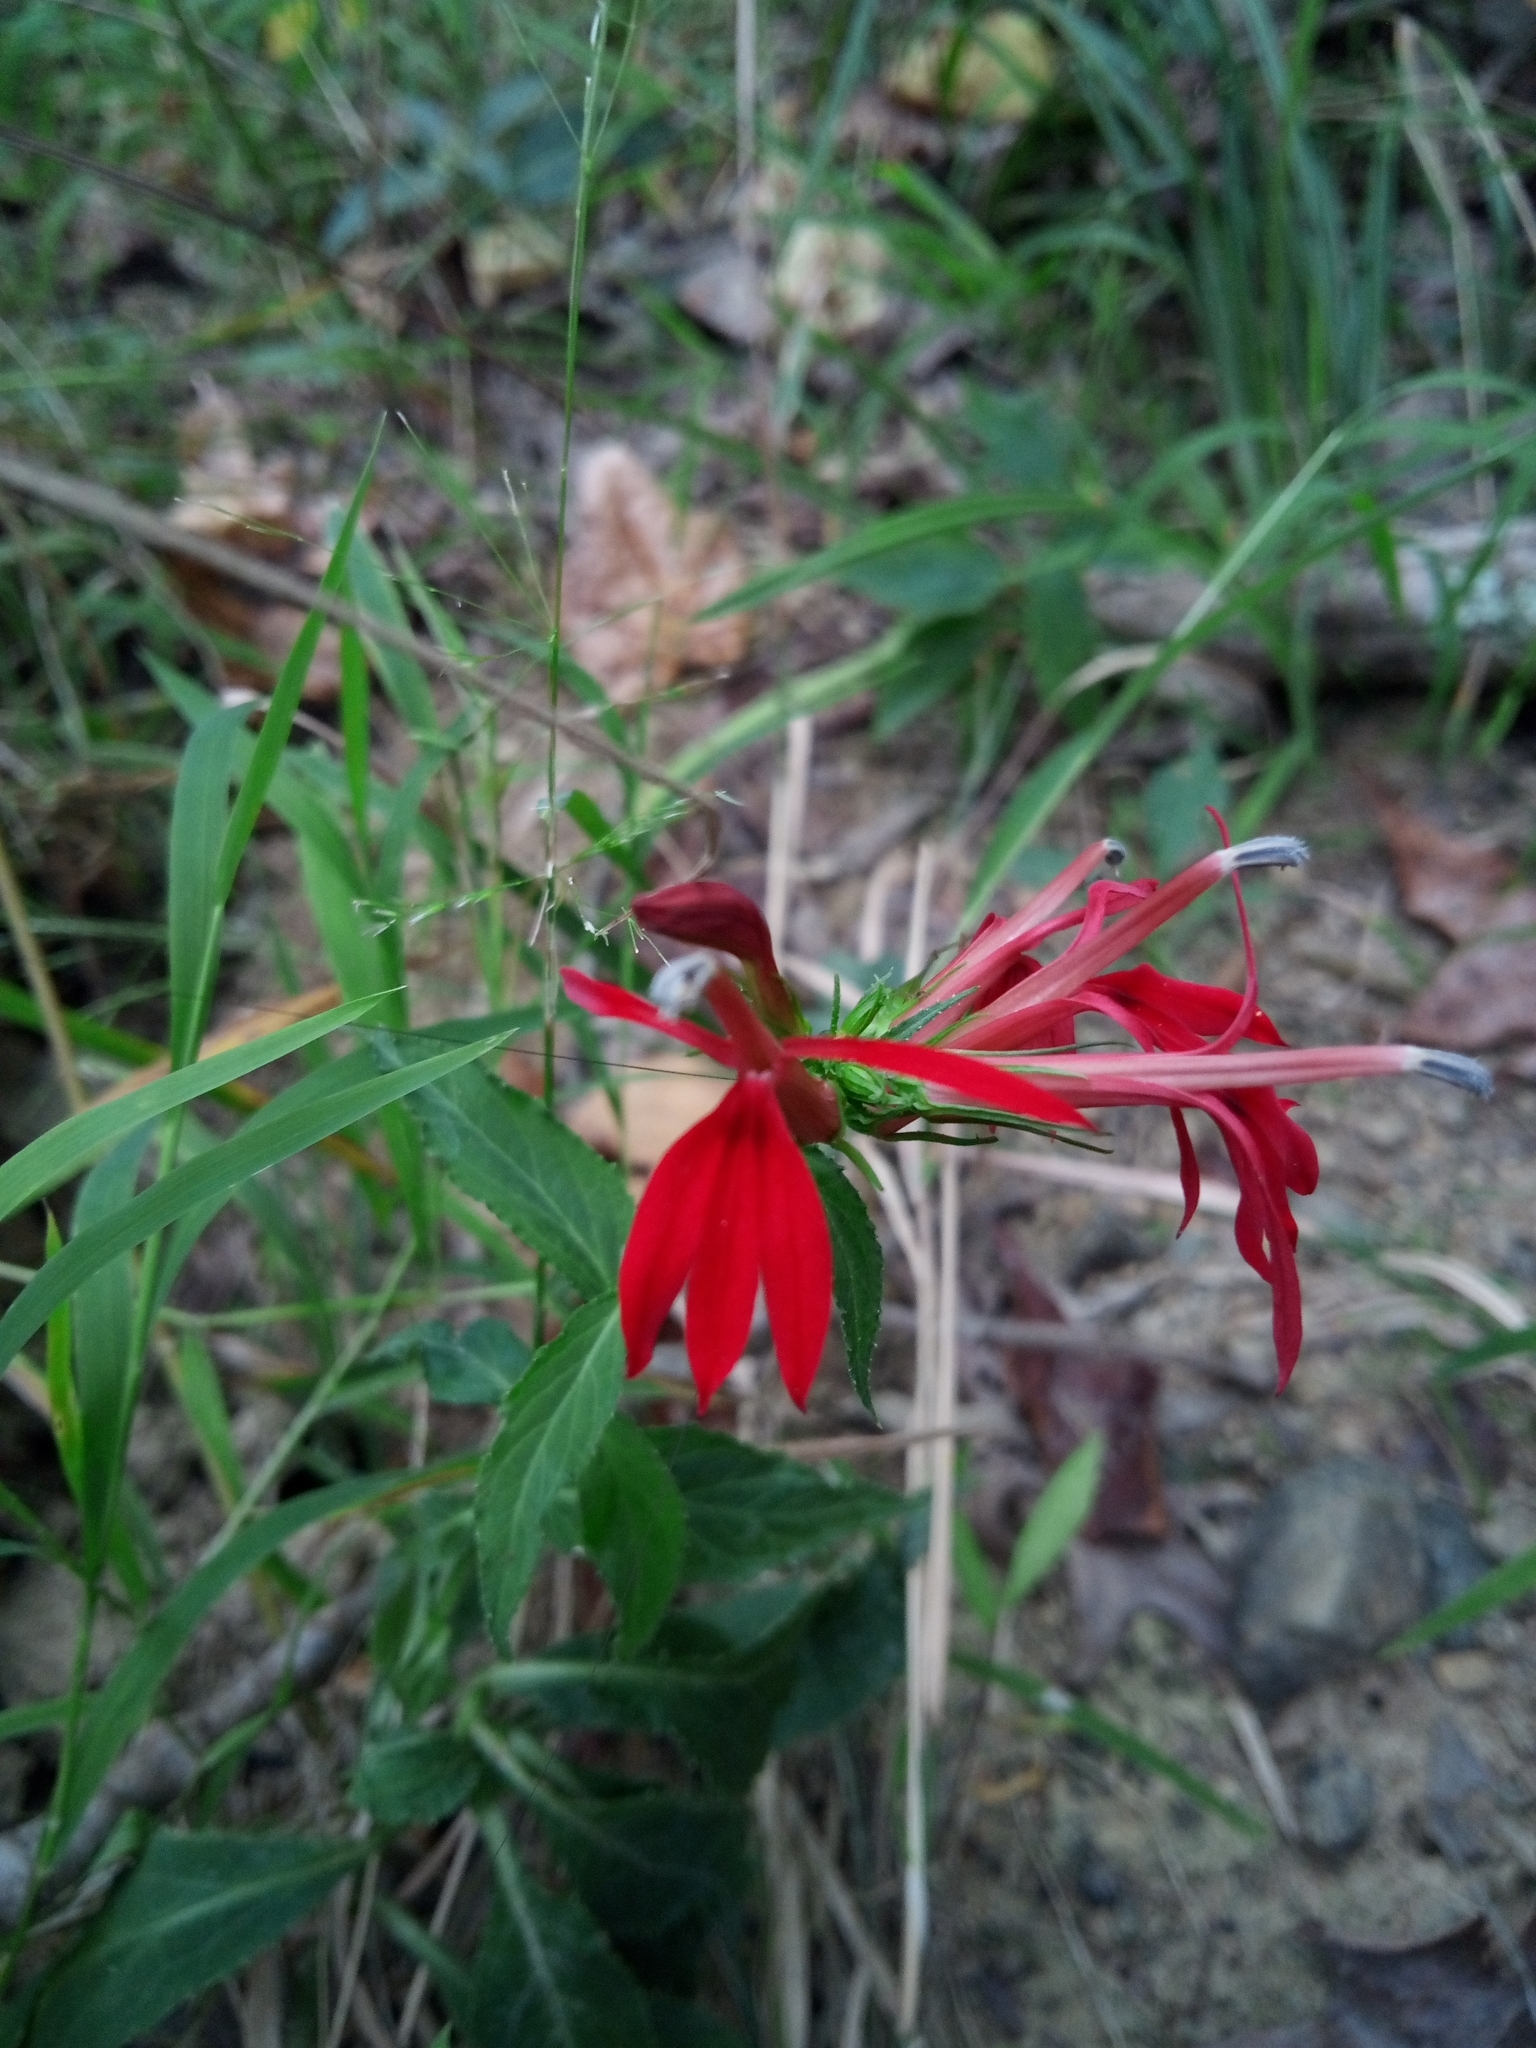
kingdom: Plantae
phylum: Tracheophyta
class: Magnoliopsida
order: Asterales
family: Campanulaceae
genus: Lobelia
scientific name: Lobelia cardinalis
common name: Cardinal flower
